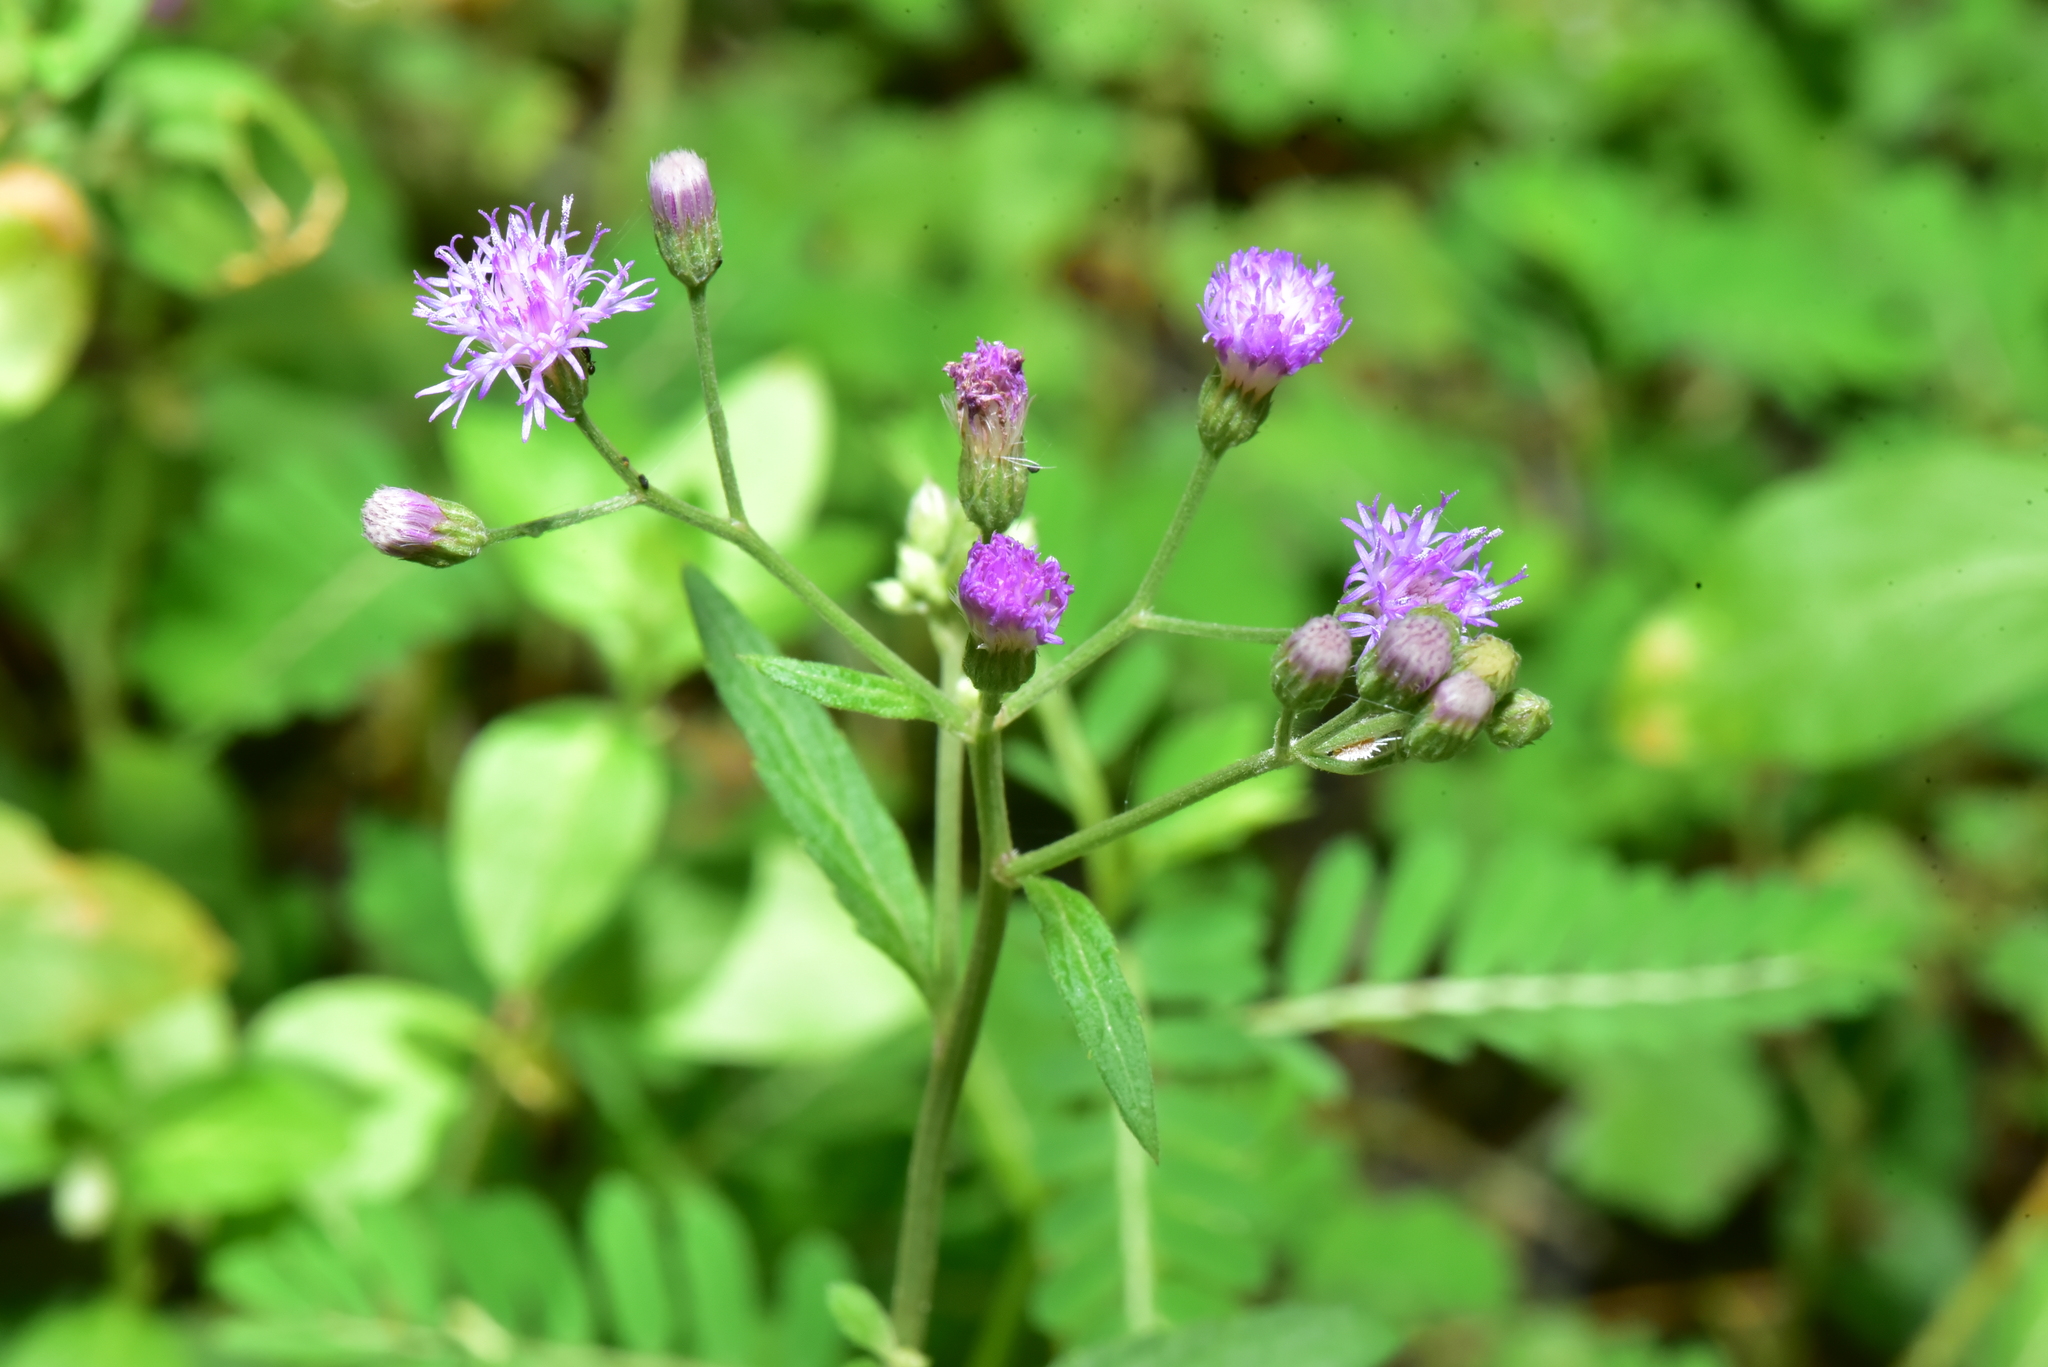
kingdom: Plantae
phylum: Tracheophyta
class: Magnoliopsida
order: Asterales
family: Asteraceae
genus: Cyanthillium
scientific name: Cyanthillium cinereum
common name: Little ironweed
